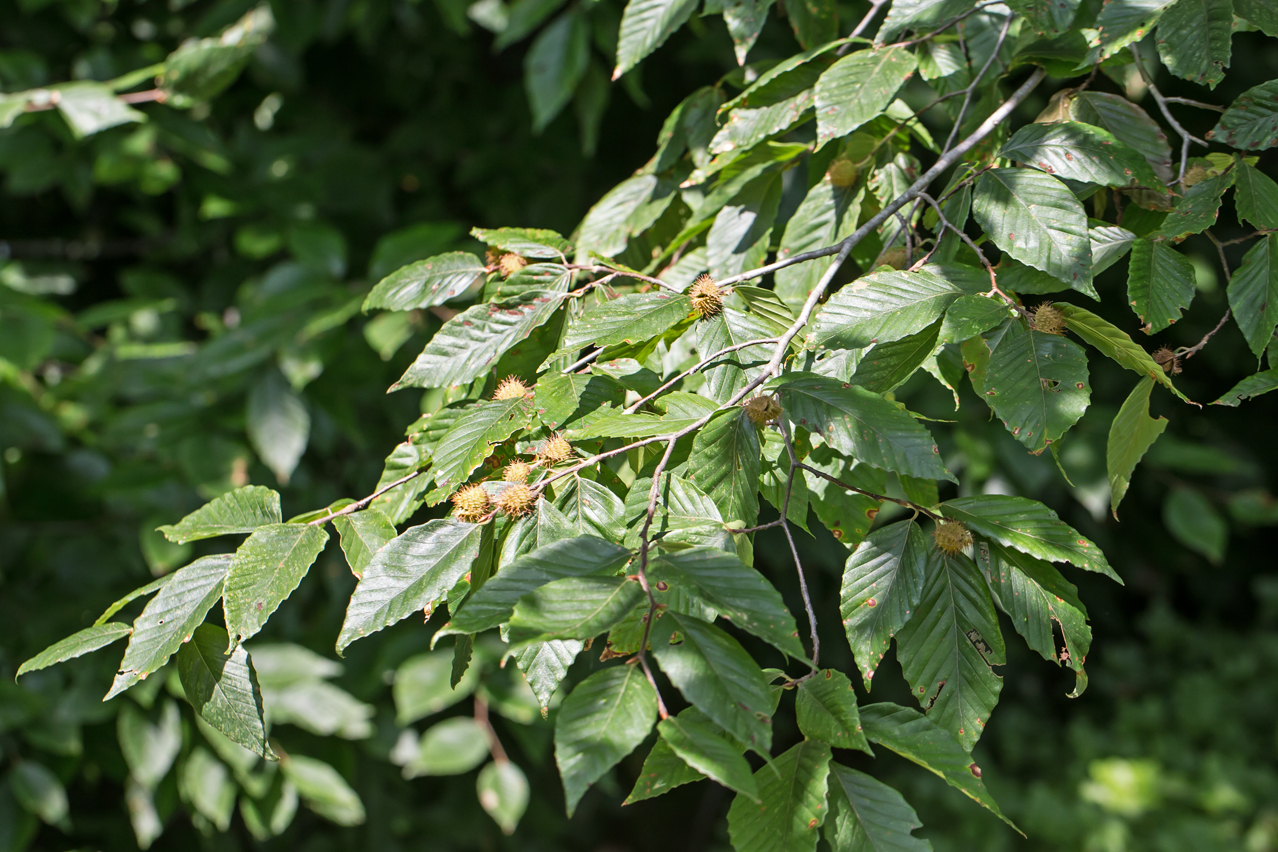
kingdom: Plantae
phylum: Tracheophyta
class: Magnoliopsida
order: Fagales
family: Fagaceae
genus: Fagus
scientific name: Fagus grandifolia
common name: American beech
